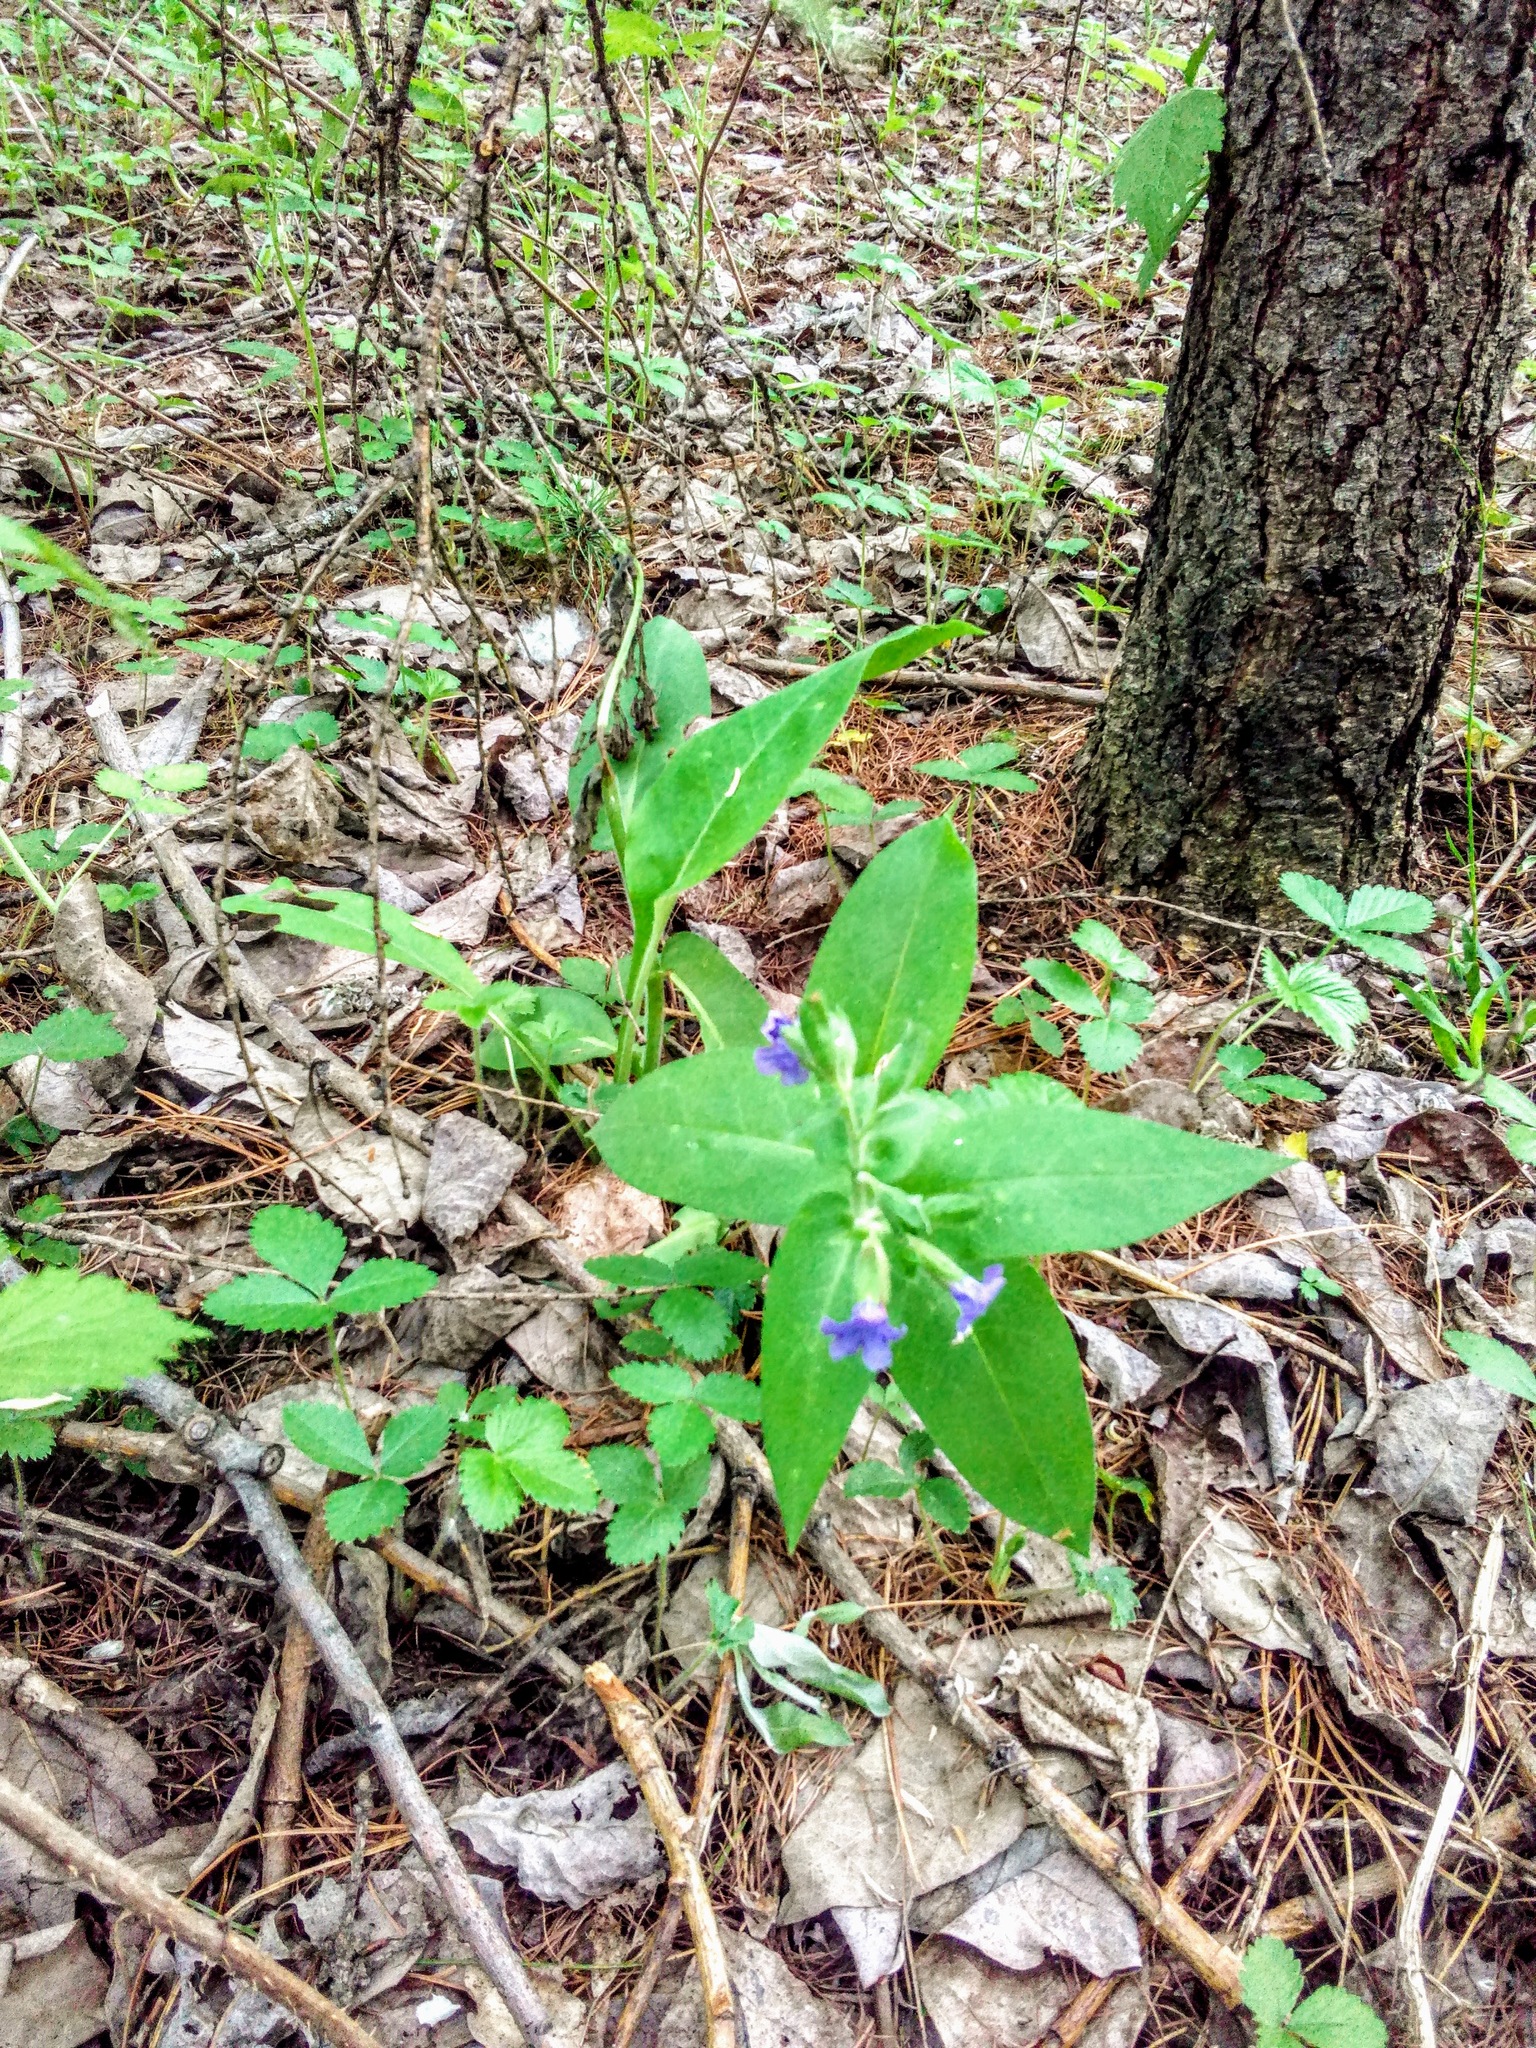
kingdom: Plantae
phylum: Tracheophyta
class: Magnoliopsida
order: Boraginales
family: Boraginaceae
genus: Pulmonaria
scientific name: Pulmonaria mollis
